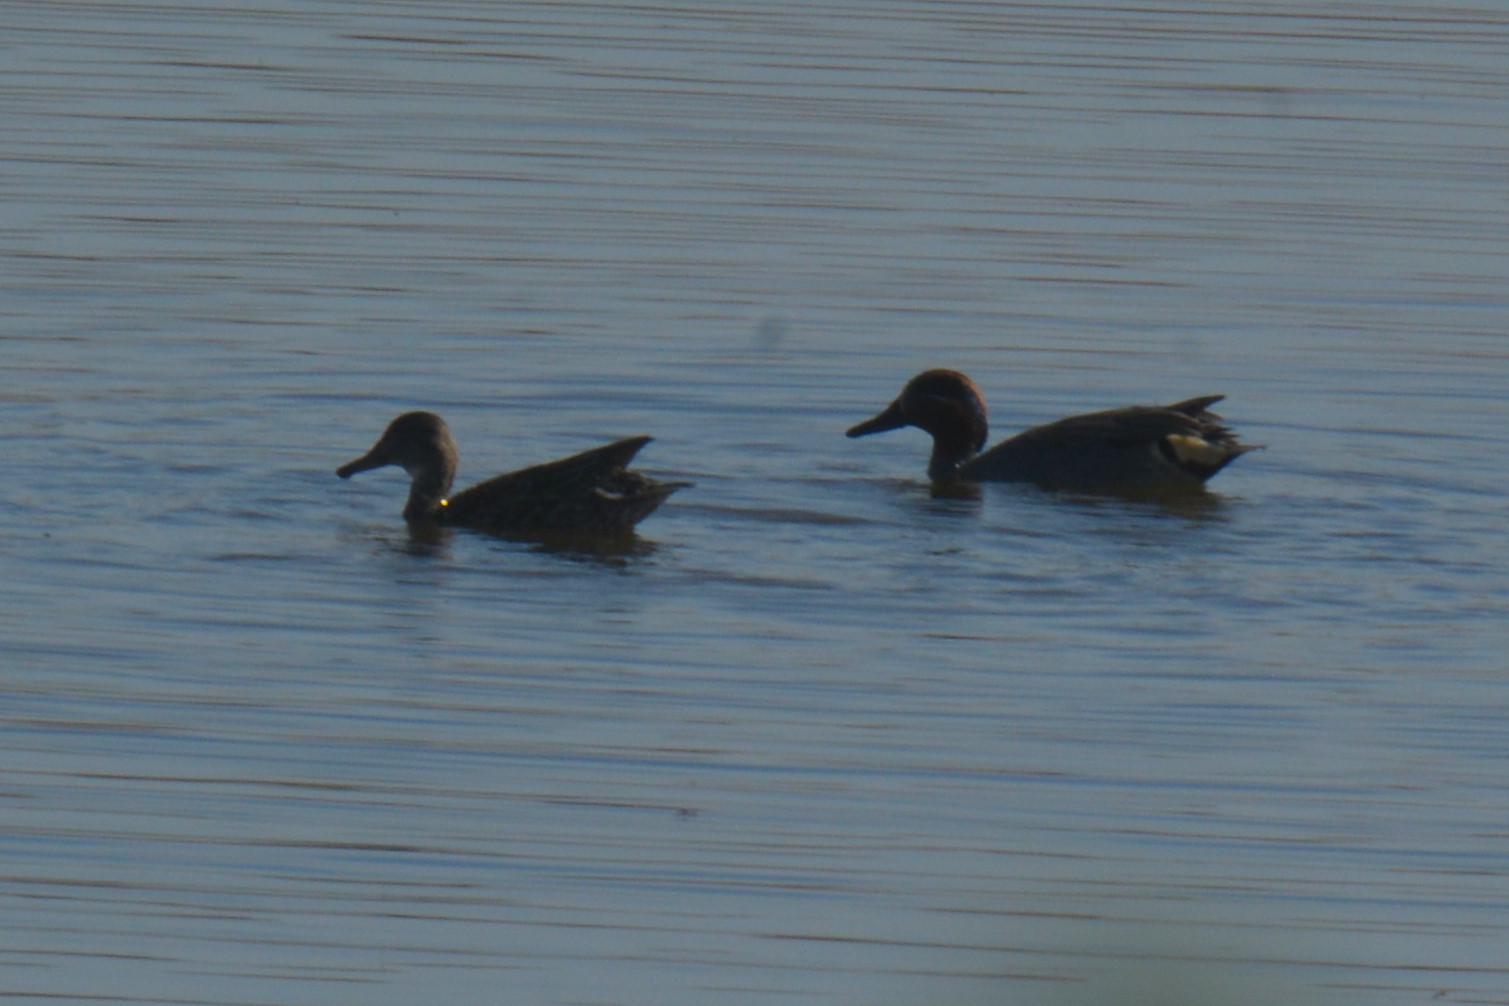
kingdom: Animalia
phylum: Chordata
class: Aves
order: Anseriformes
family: Anatidae
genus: Anas
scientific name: Anas crecca
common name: Eurasian teal
